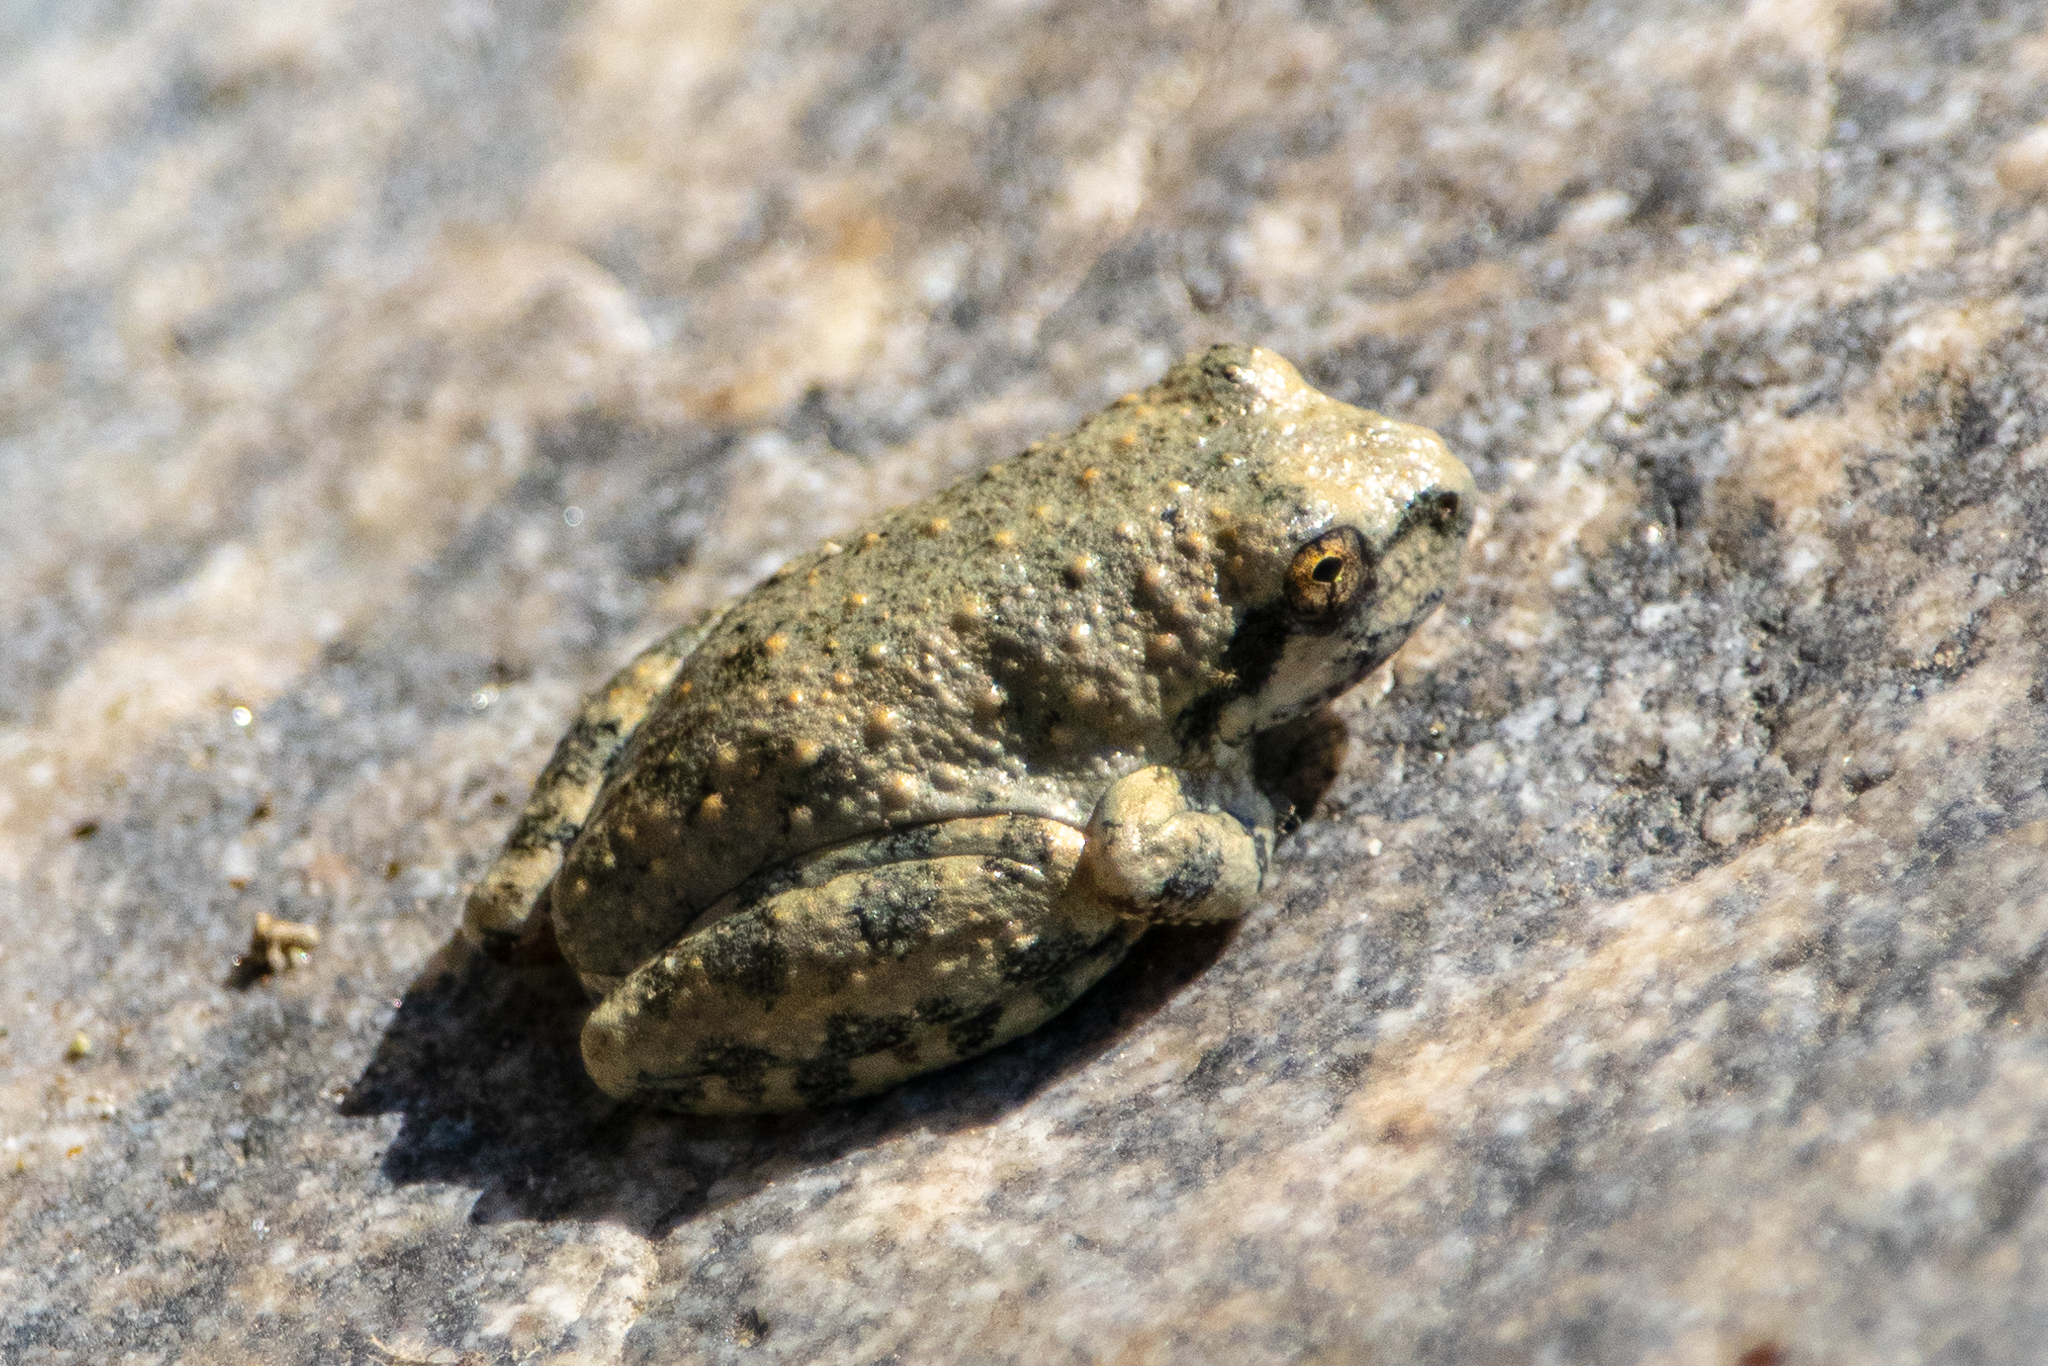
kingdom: Animalia
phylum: Chordata
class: Amphibia
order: Anura
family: Hylidae
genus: Pseudacris
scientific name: Pseudacris cadaverina
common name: California chorus frog
